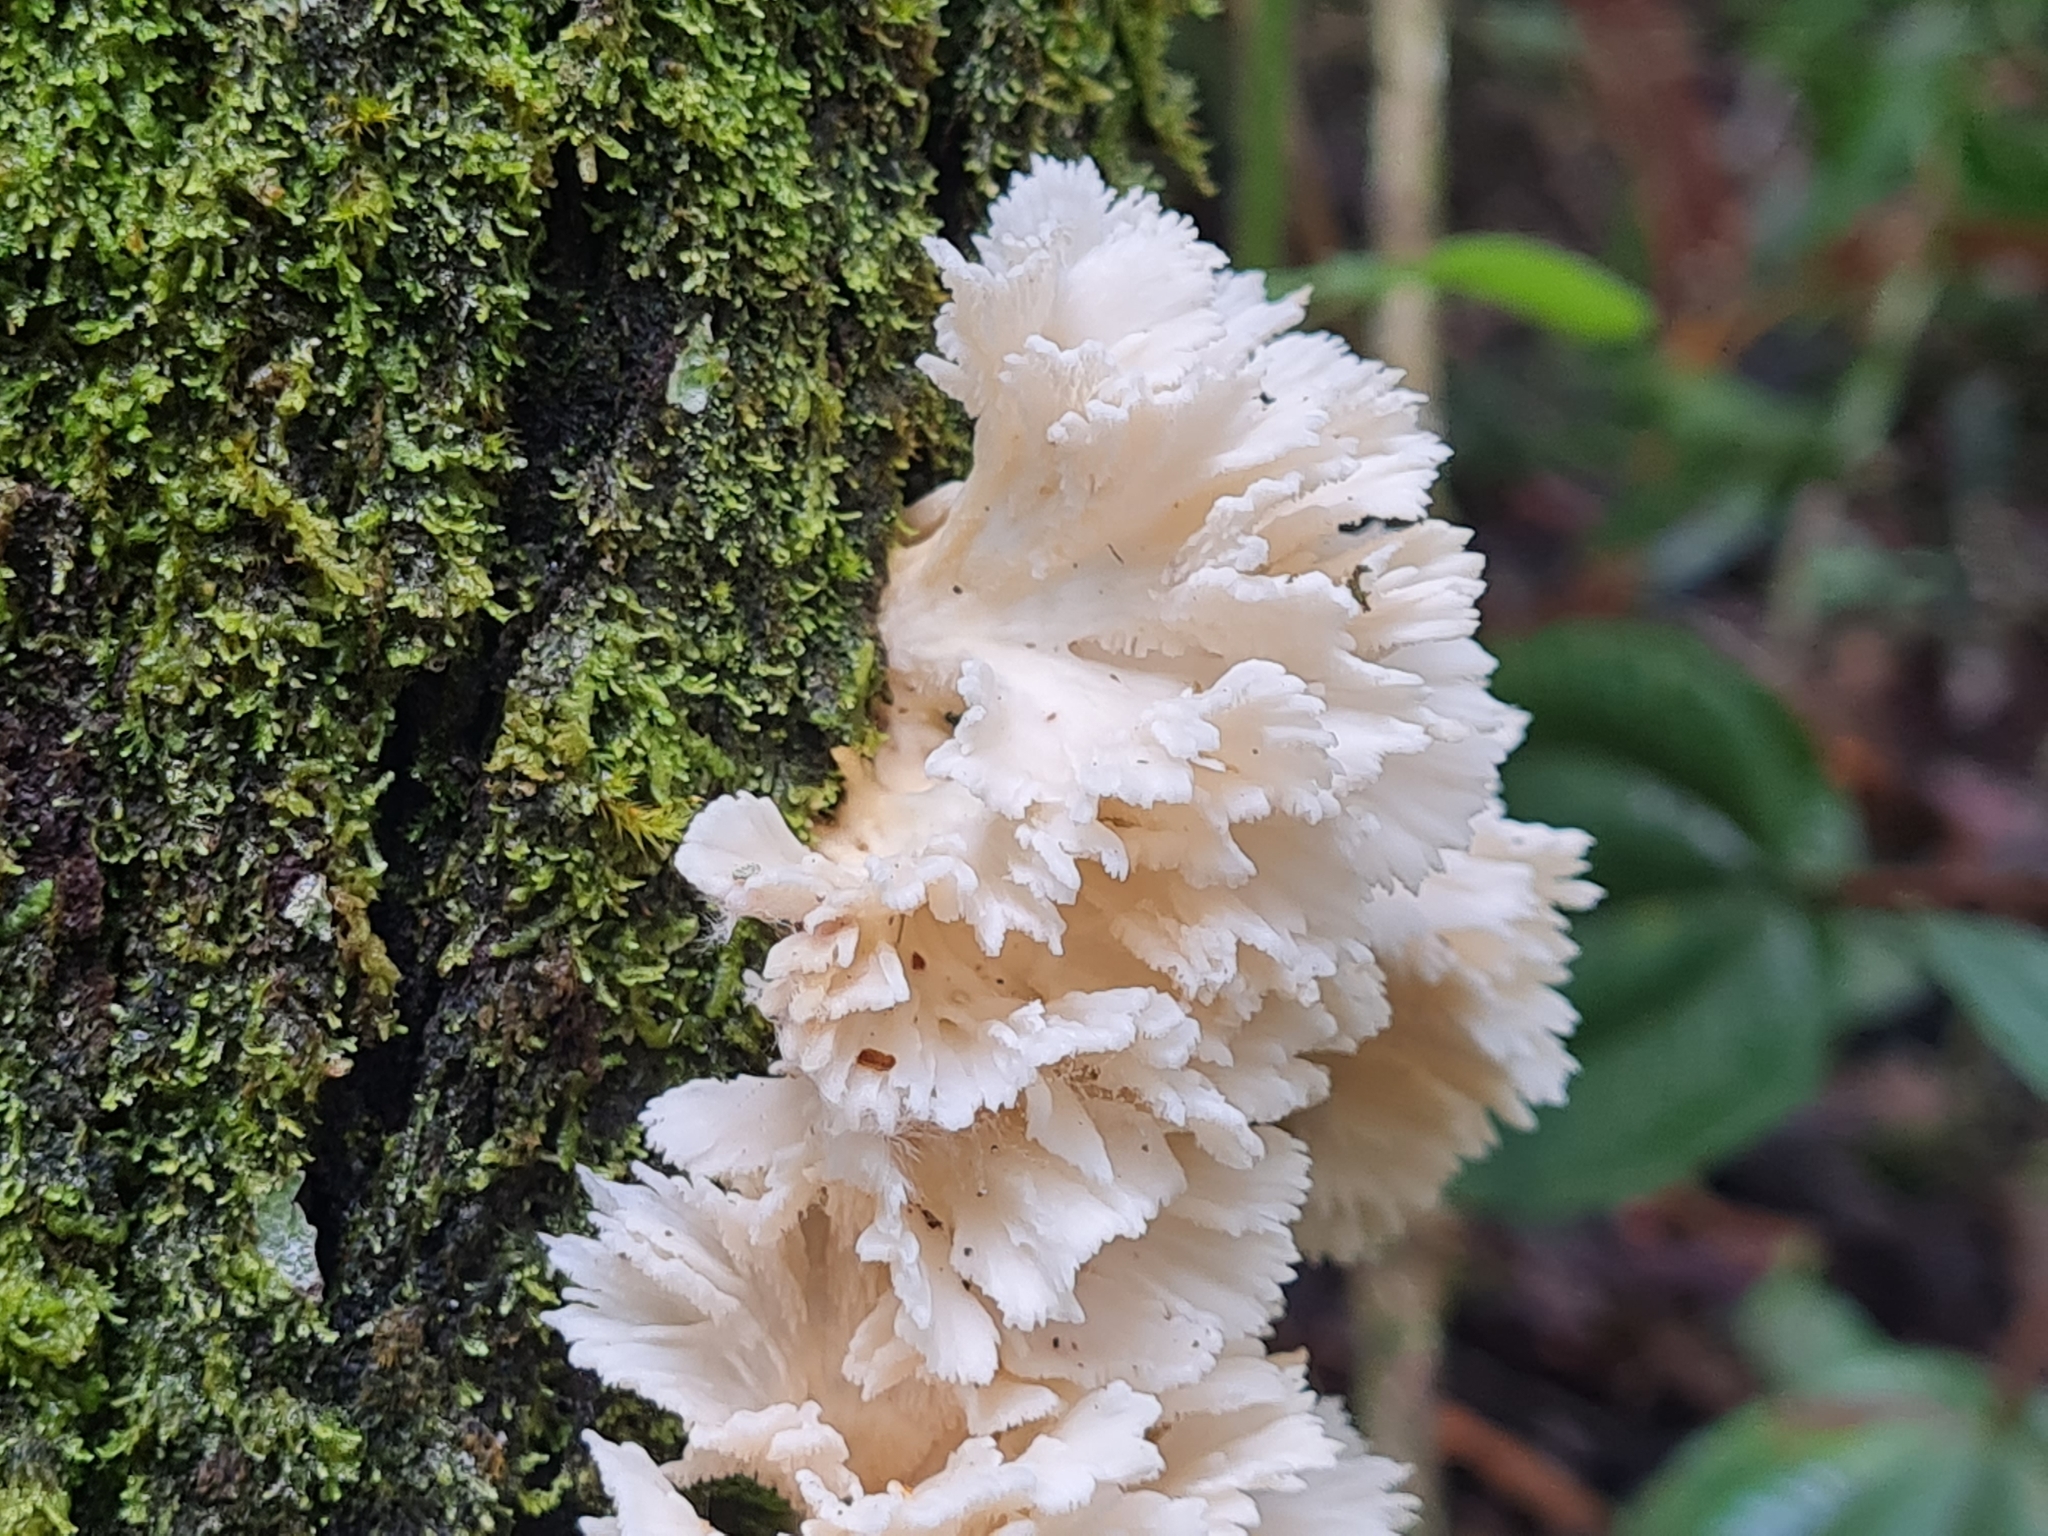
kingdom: Fungi
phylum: Basidiomycota
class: Agaricomycetes
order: Polyporales
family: Irpicaceae
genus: Irpex
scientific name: Irpex rosettiformis
